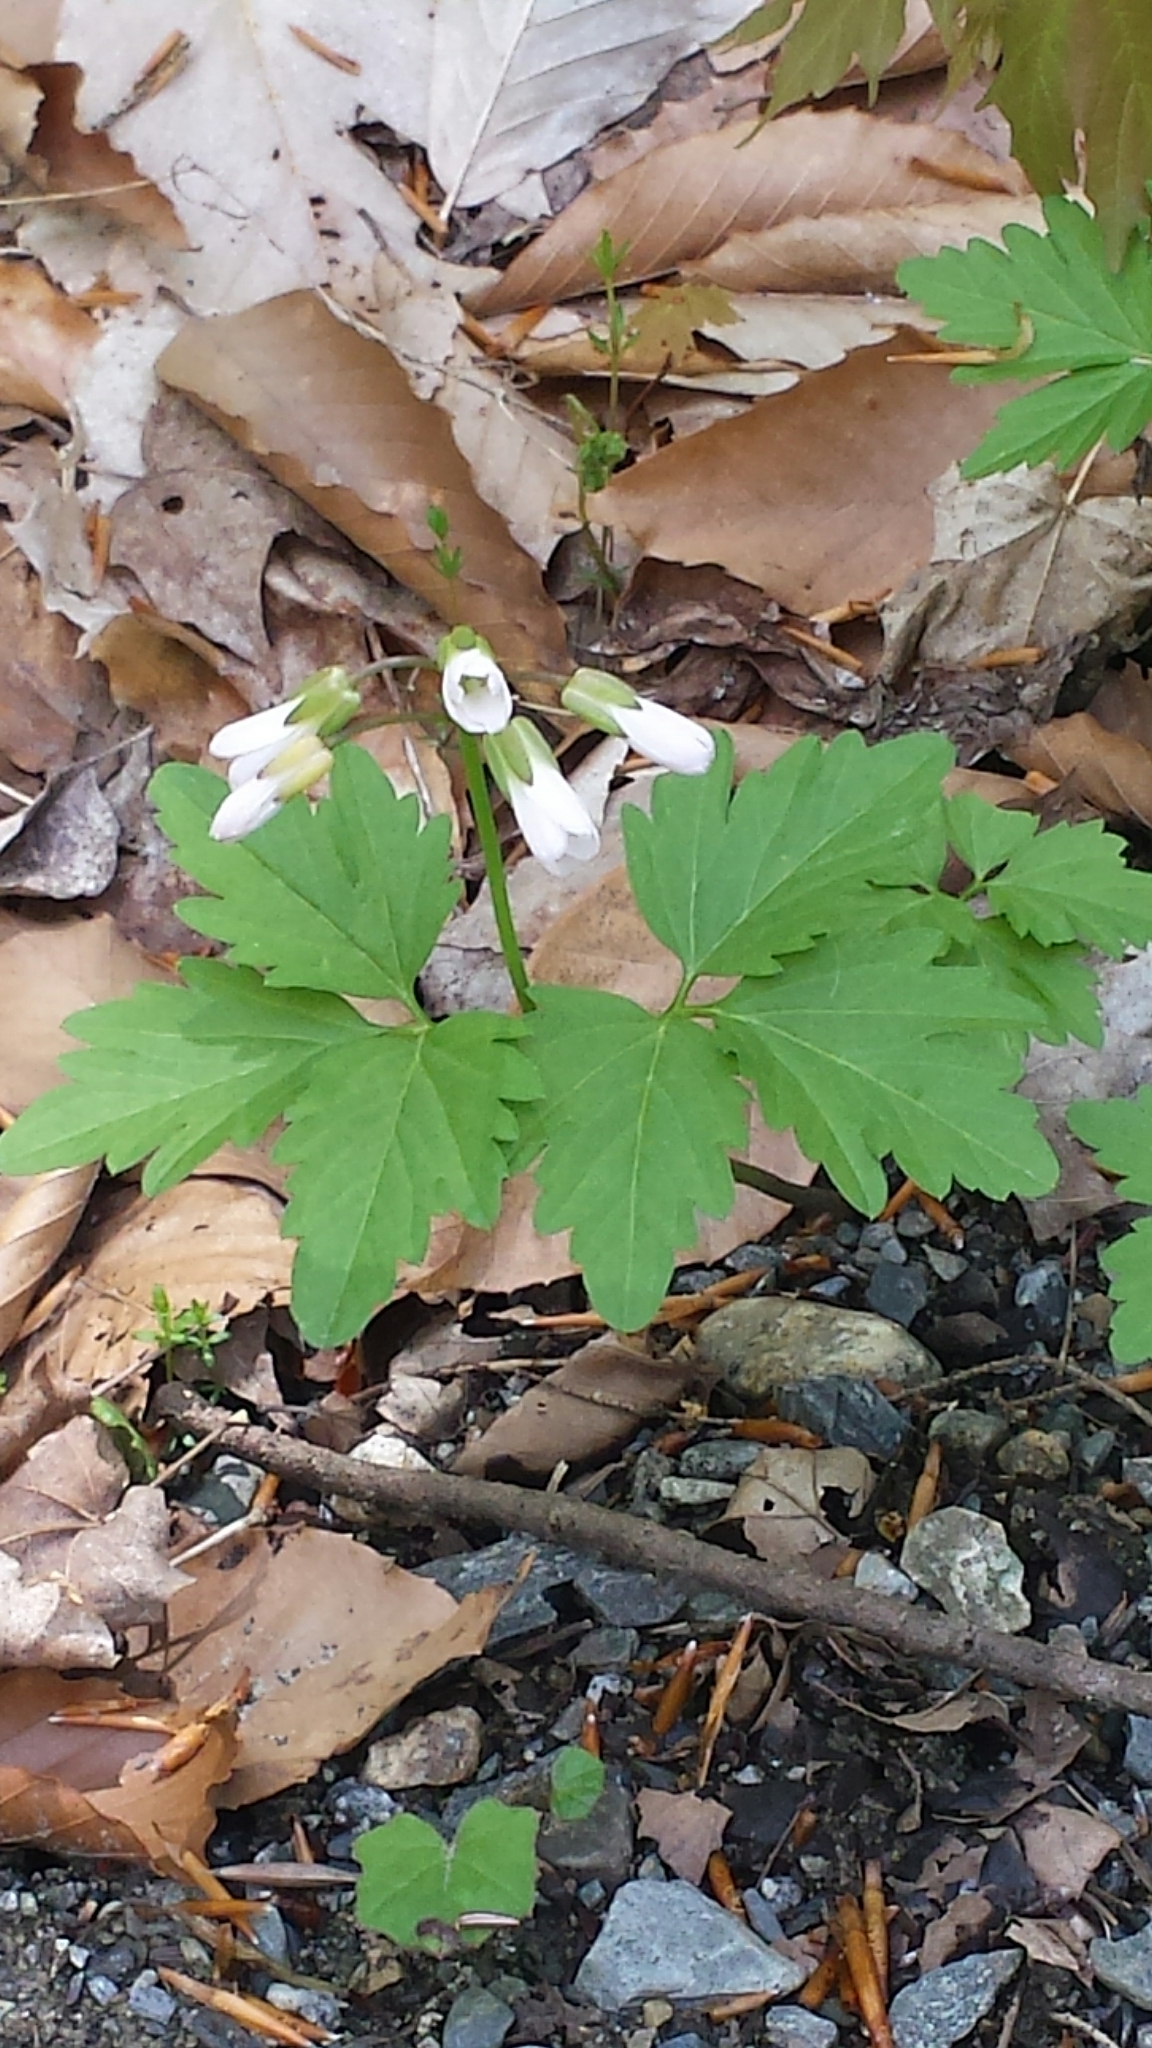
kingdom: Plantae
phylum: Tracheophyta
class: Magnoliopsida
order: Brassicales
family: Brassicaceae
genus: Cardamine
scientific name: Cardamine diphylla
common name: Broad-leaved toothwort
